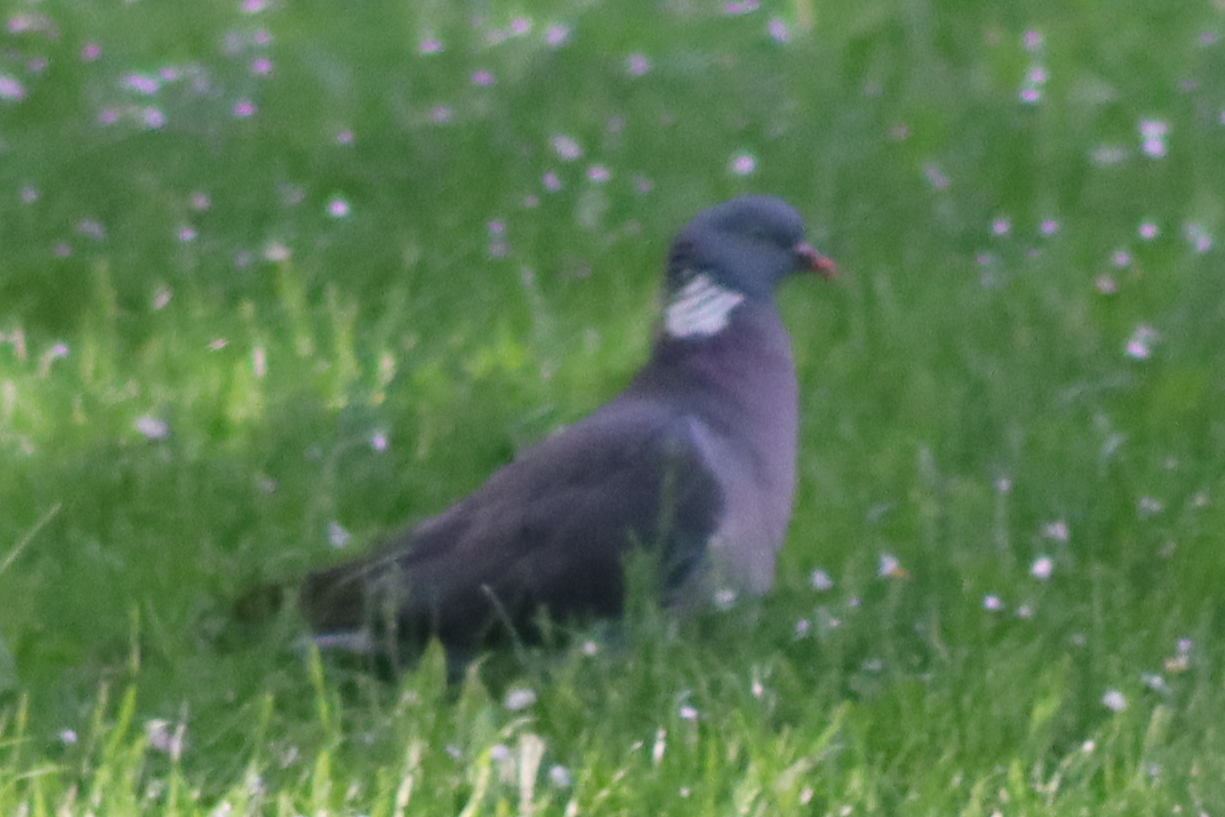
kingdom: Animalia
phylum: Chordata
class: Aves
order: Columbiformes
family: Columbidae
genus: Columba
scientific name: Columba palumbus
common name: Common wood pigeon
